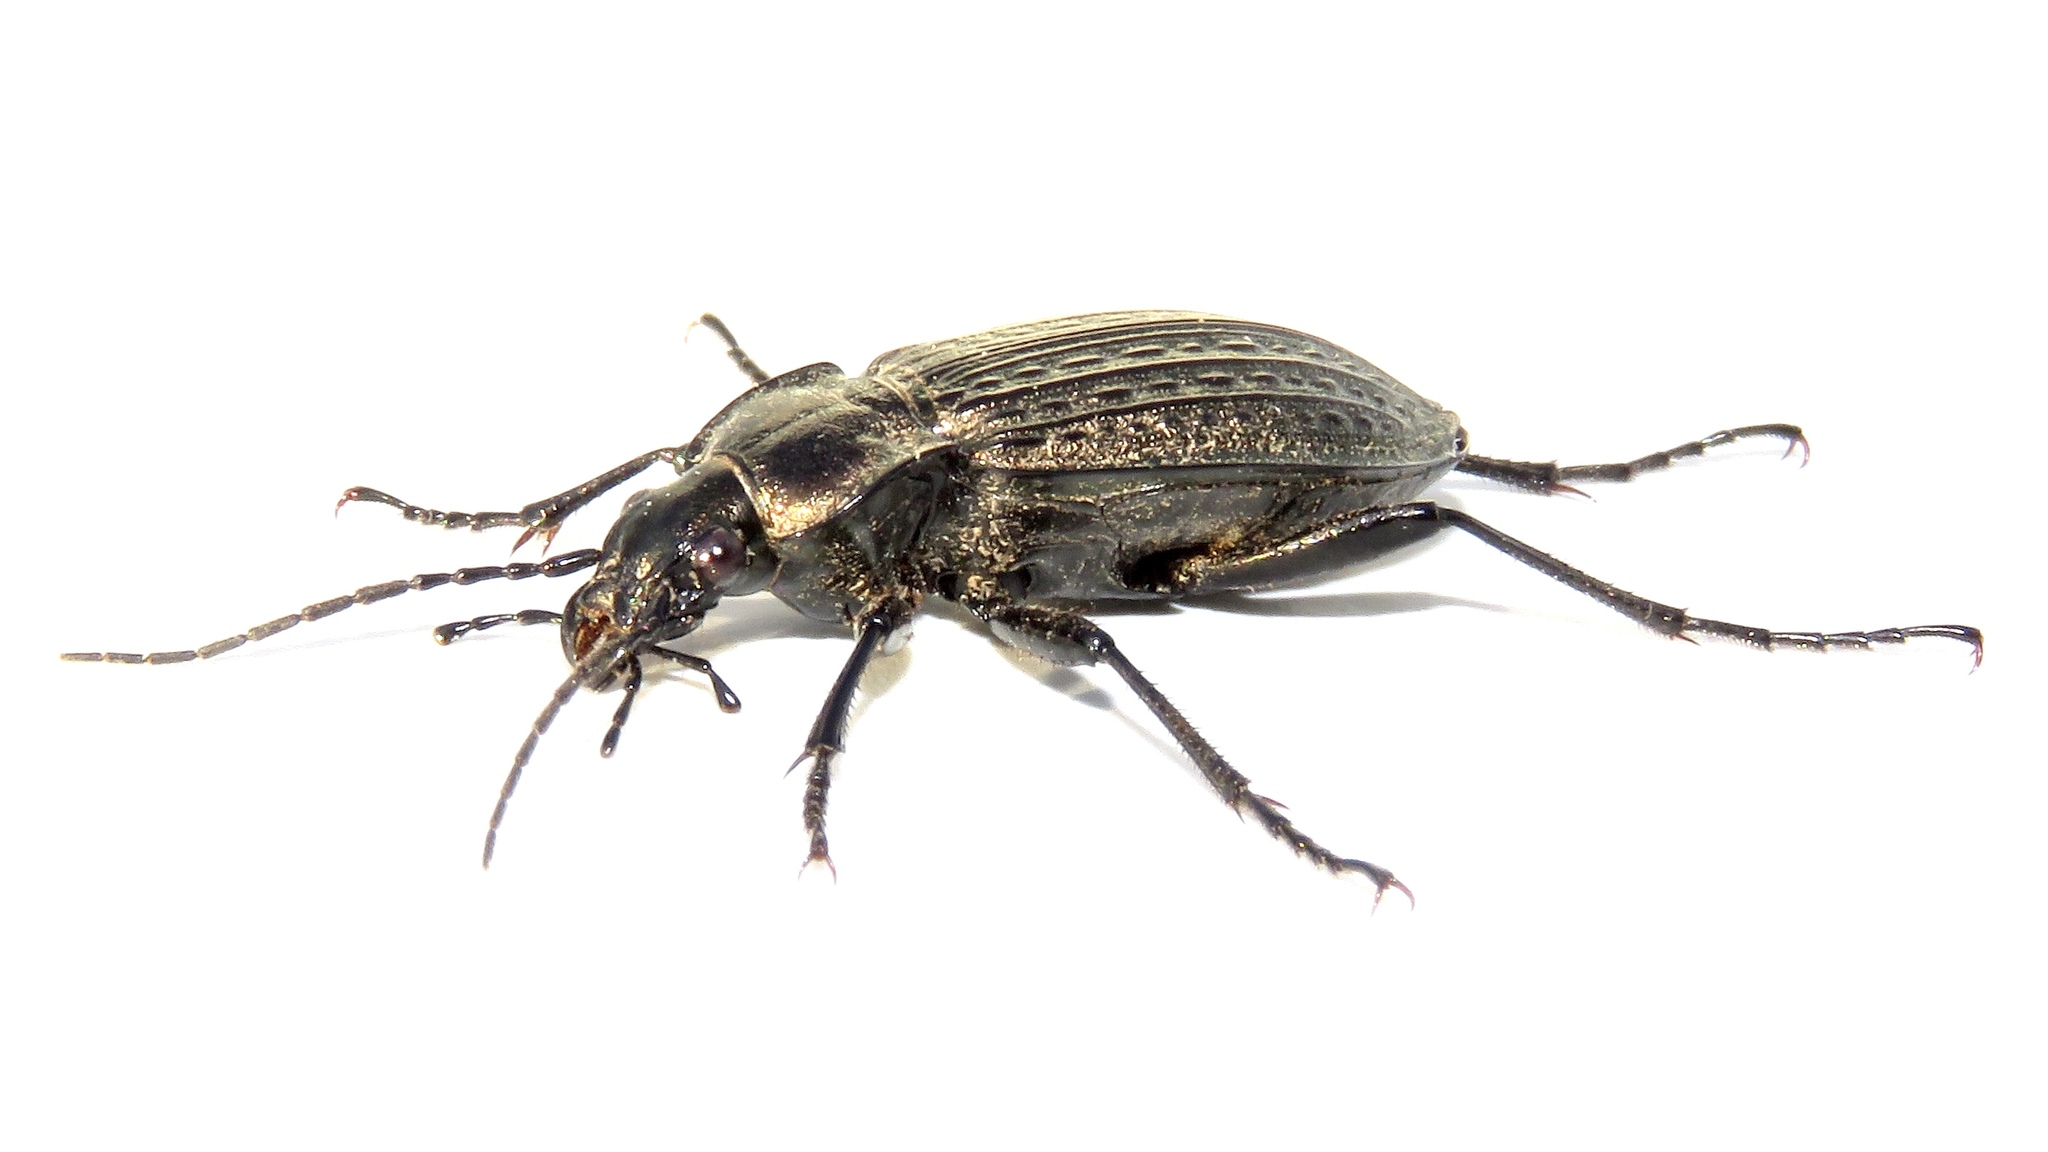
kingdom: Animalia
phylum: Arthropoda
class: Insecta
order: Coleoptera
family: Carabidae
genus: Carabus
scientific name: Carabus granulatus
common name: Granulate ground beetle
